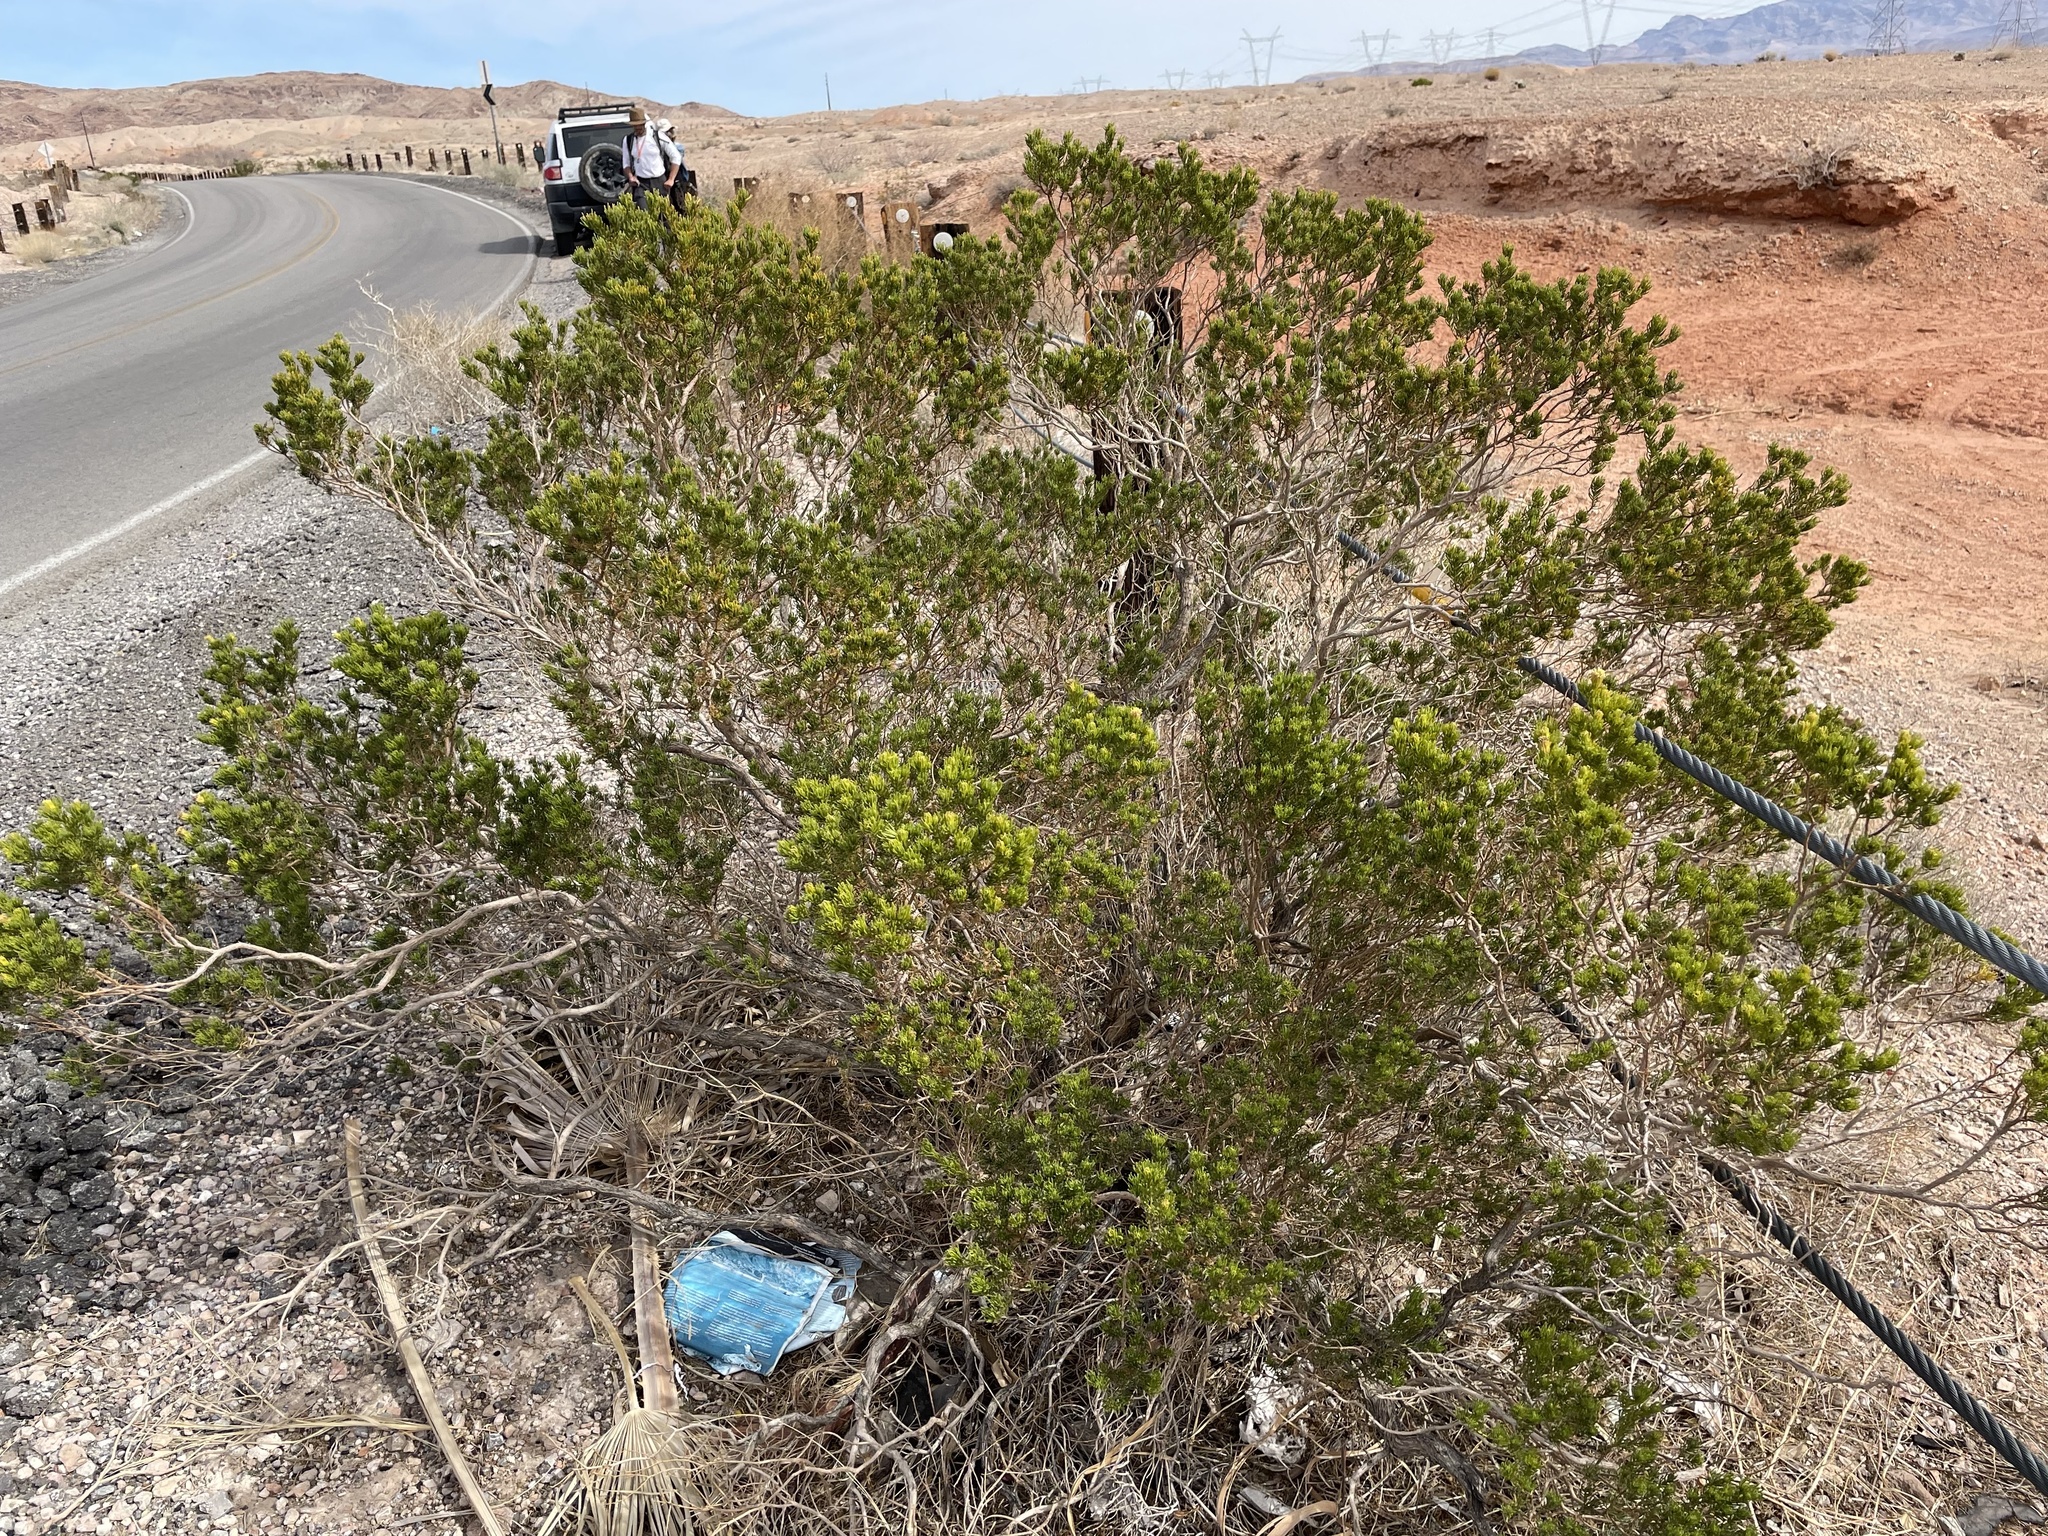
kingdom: Plantae
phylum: Tracheophyta
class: Magnoliopsida
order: Asterales
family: Asteraceae
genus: Peucephyllum
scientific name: Peucephyllum schottii
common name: Pygmy-cedar
